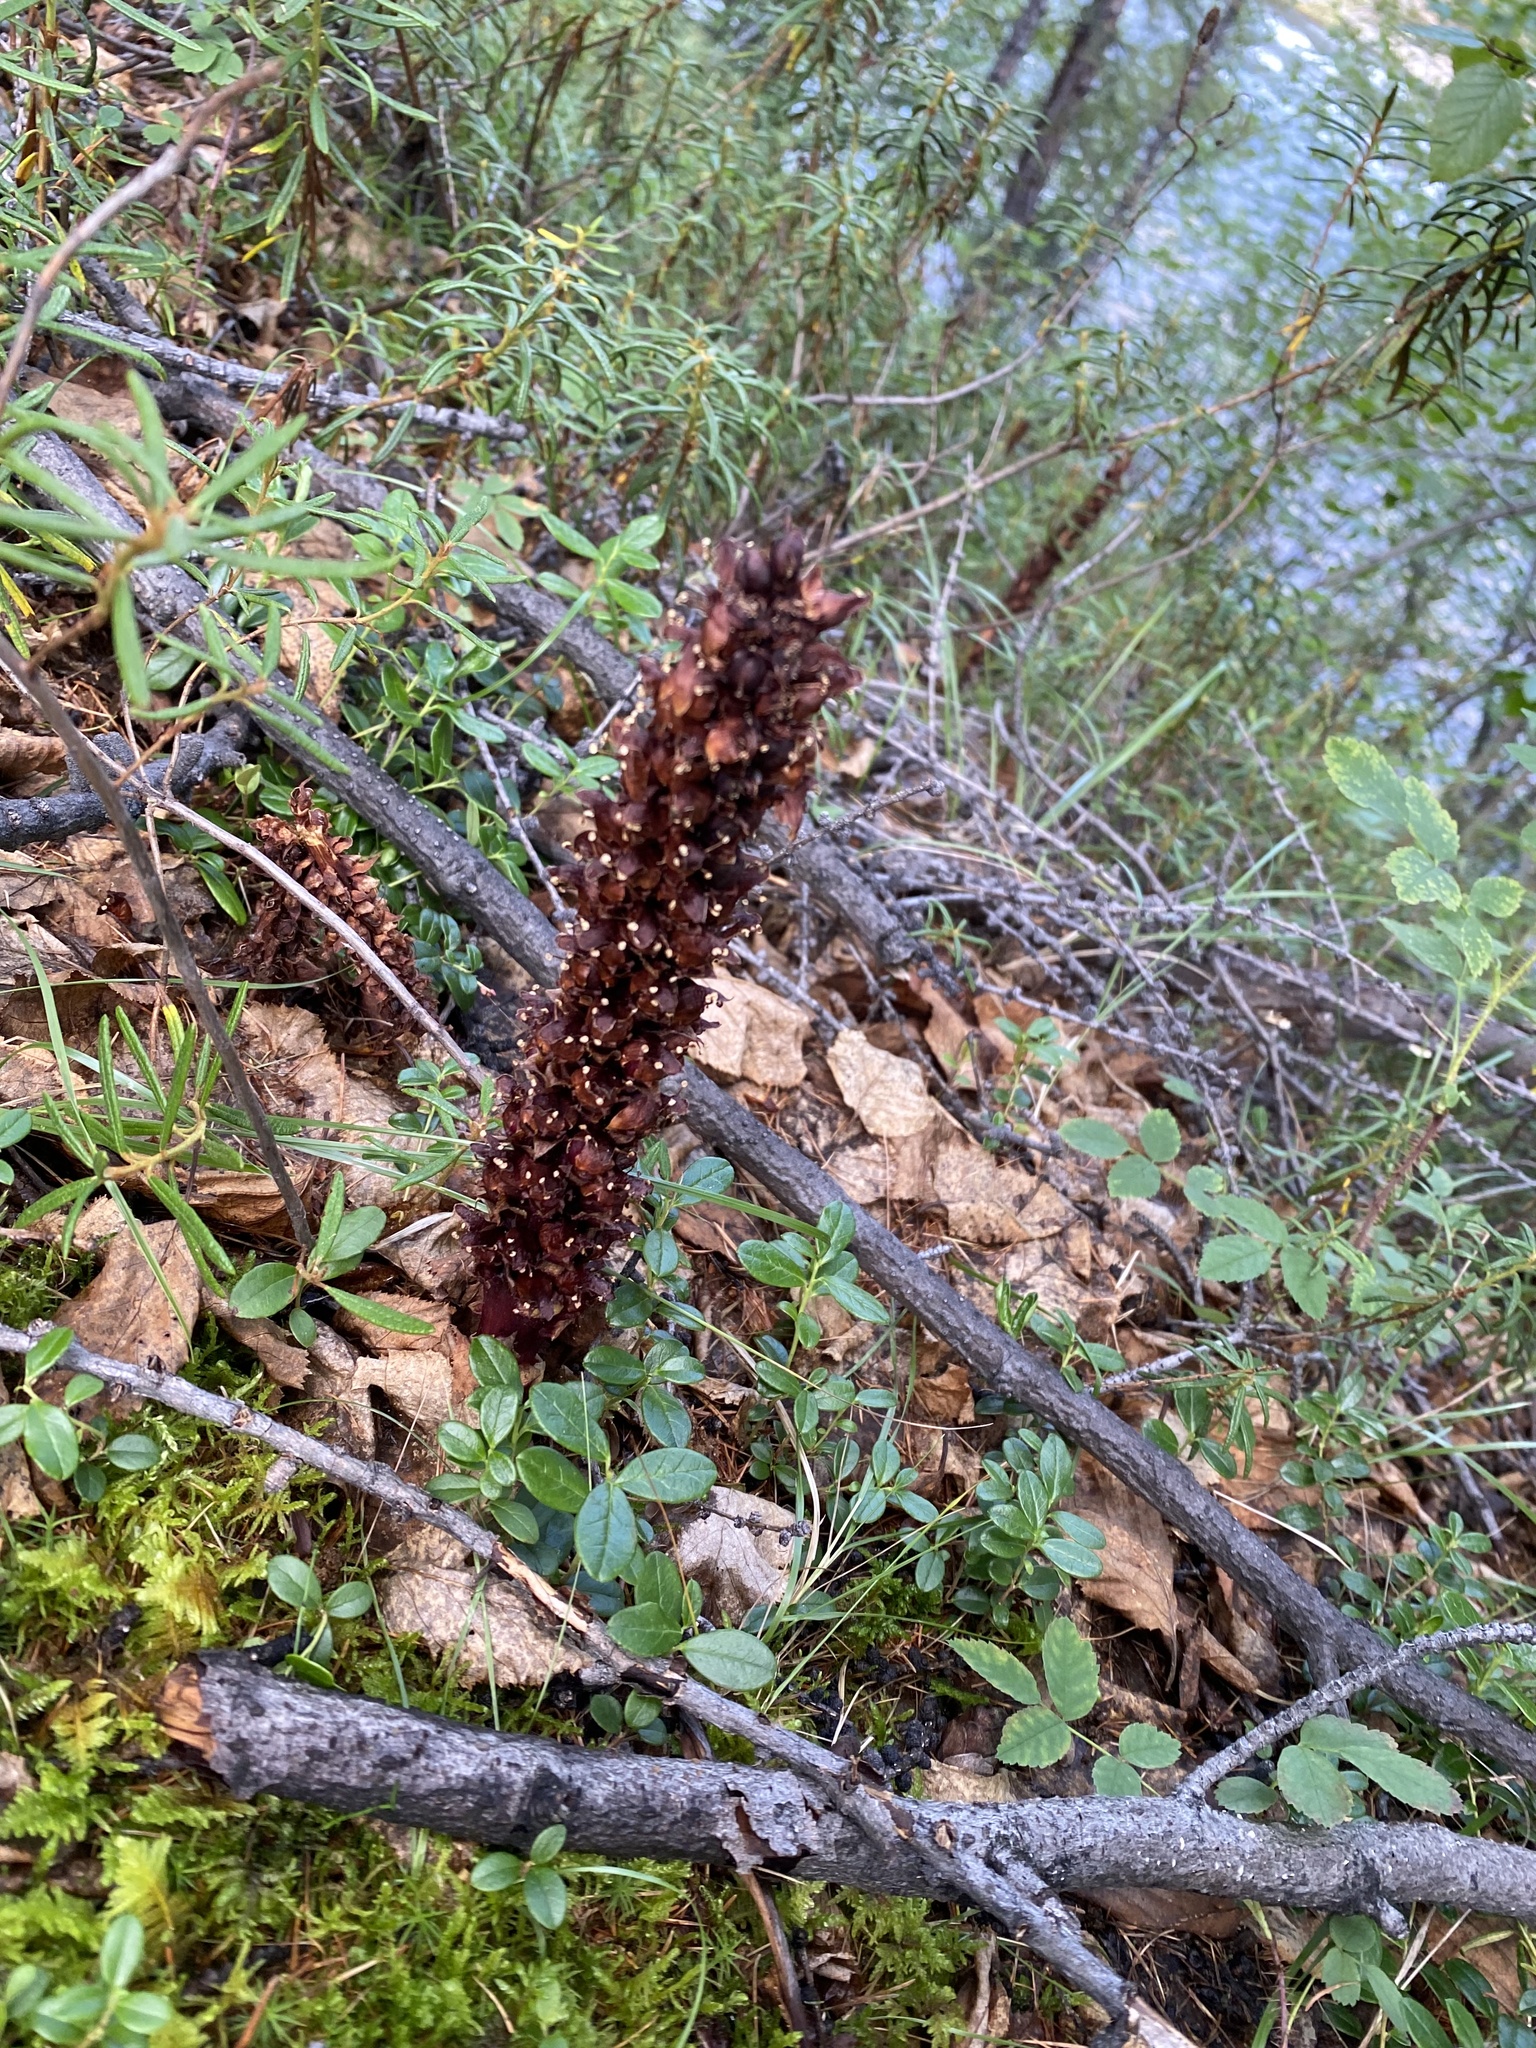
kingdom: Plantae
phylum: Tracheophyta
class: Magnoliopsida
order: Lamiales
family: Orobanchaceae
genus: Boschniakia
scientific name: Boschniakia rossica
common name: Poque
